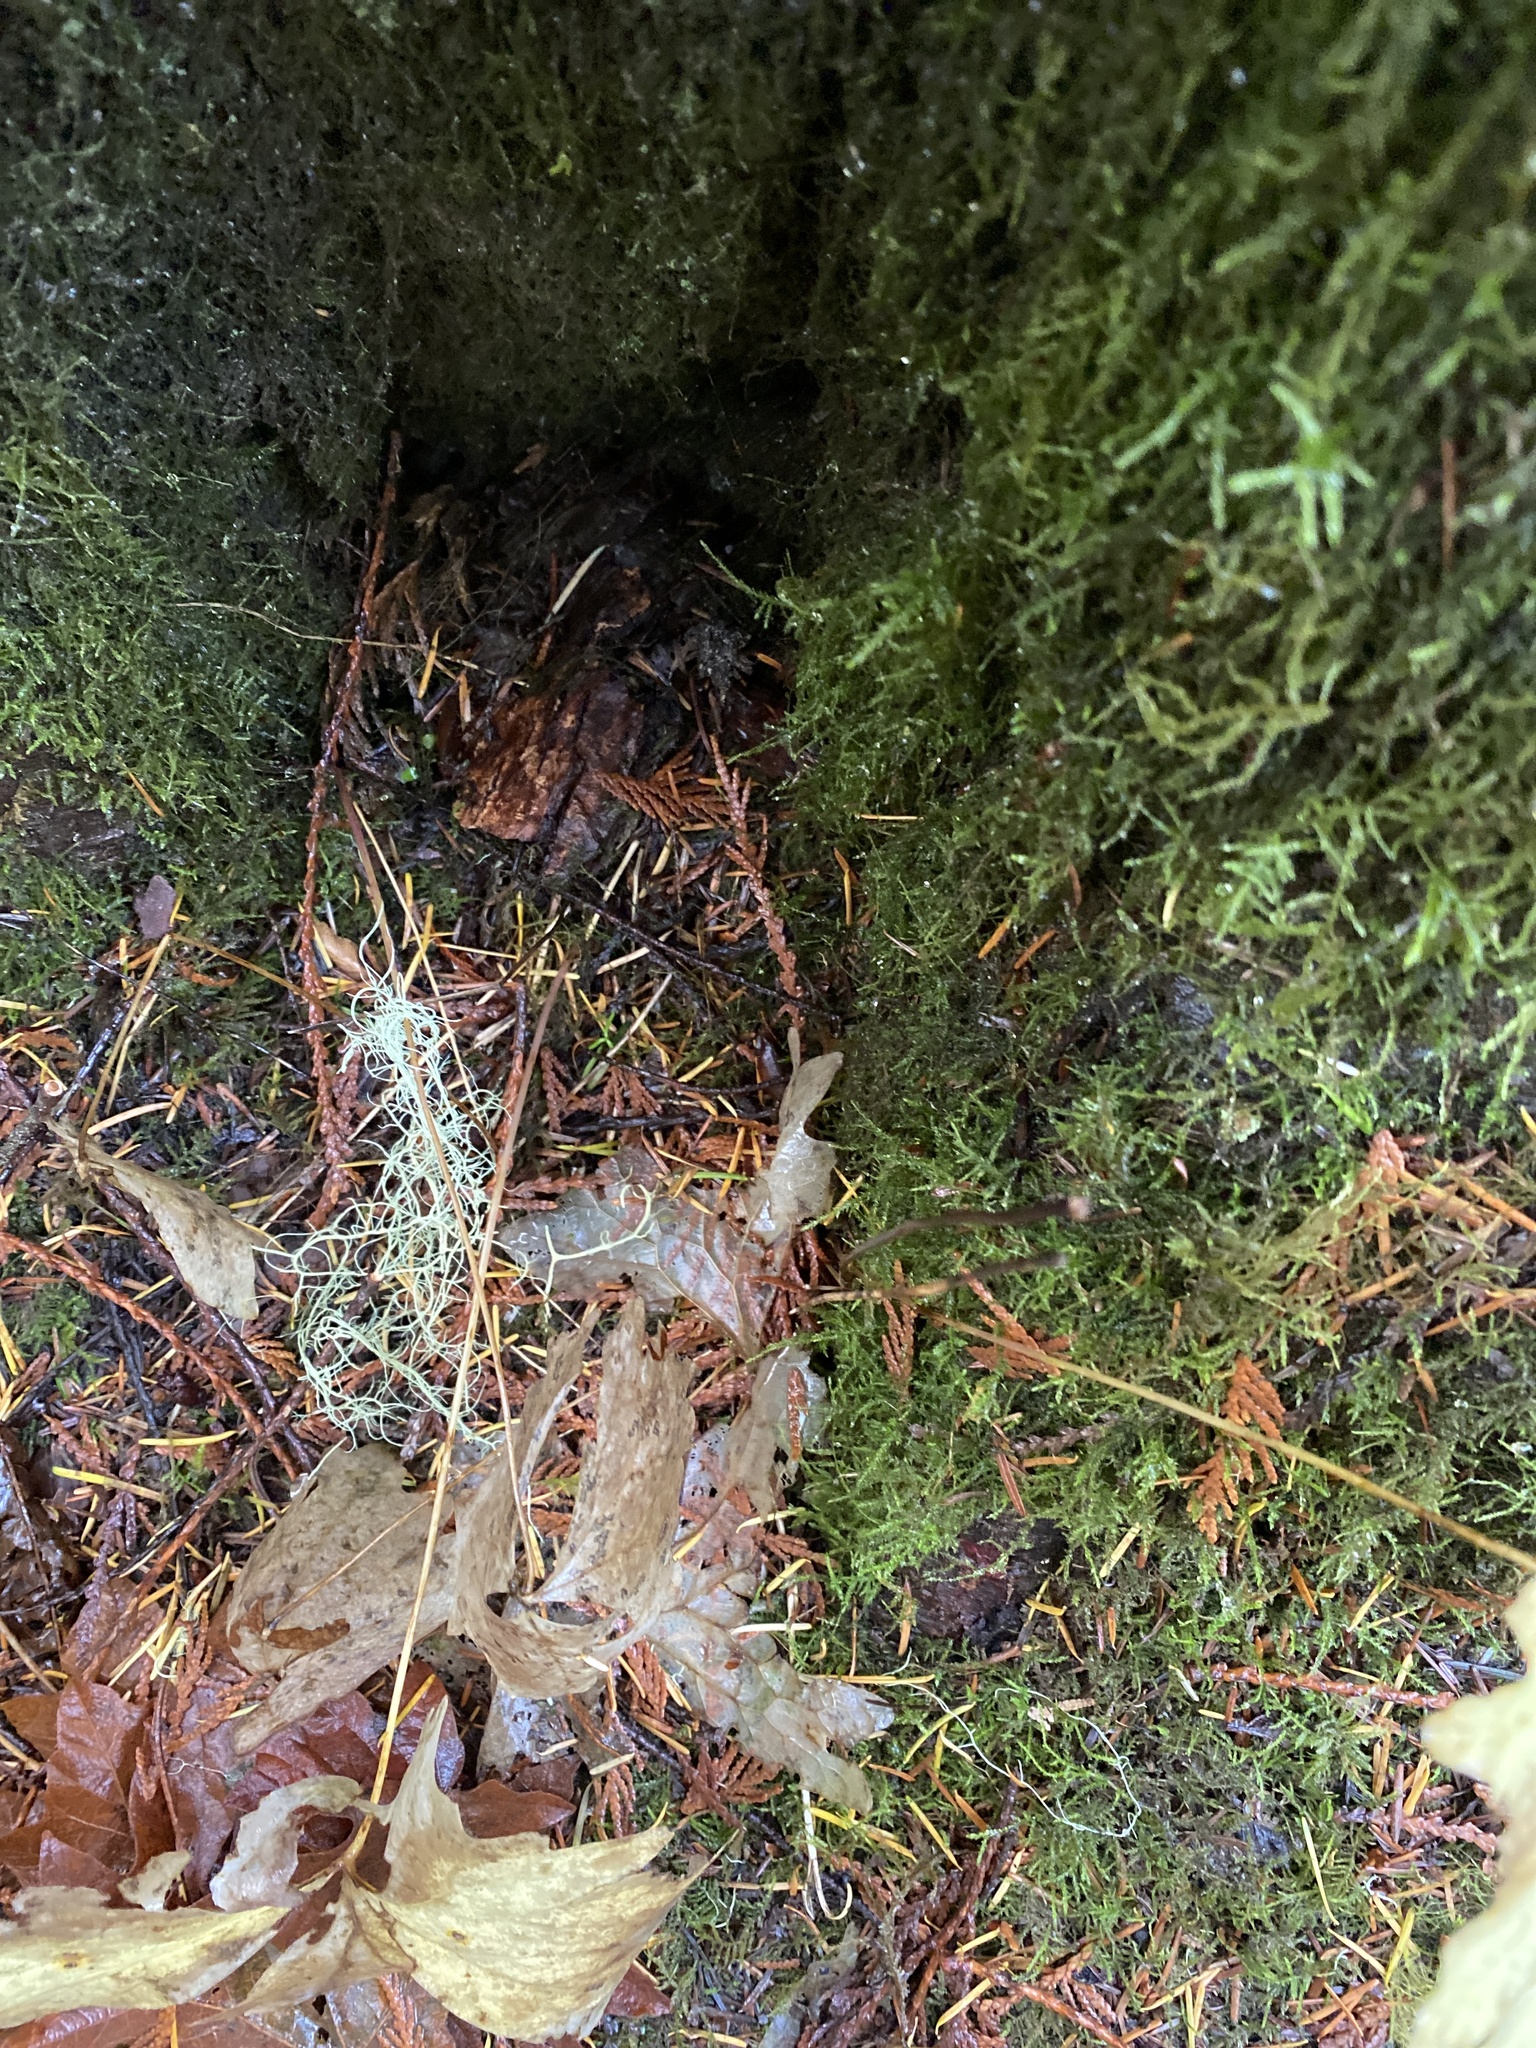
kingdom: Plantae
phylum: Tracheophyta
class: Magnoliopsida
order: Ranunculales
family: Berberidaceae
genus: Achlys
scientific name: Achlys triphylla
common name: Vanilla-leaf
